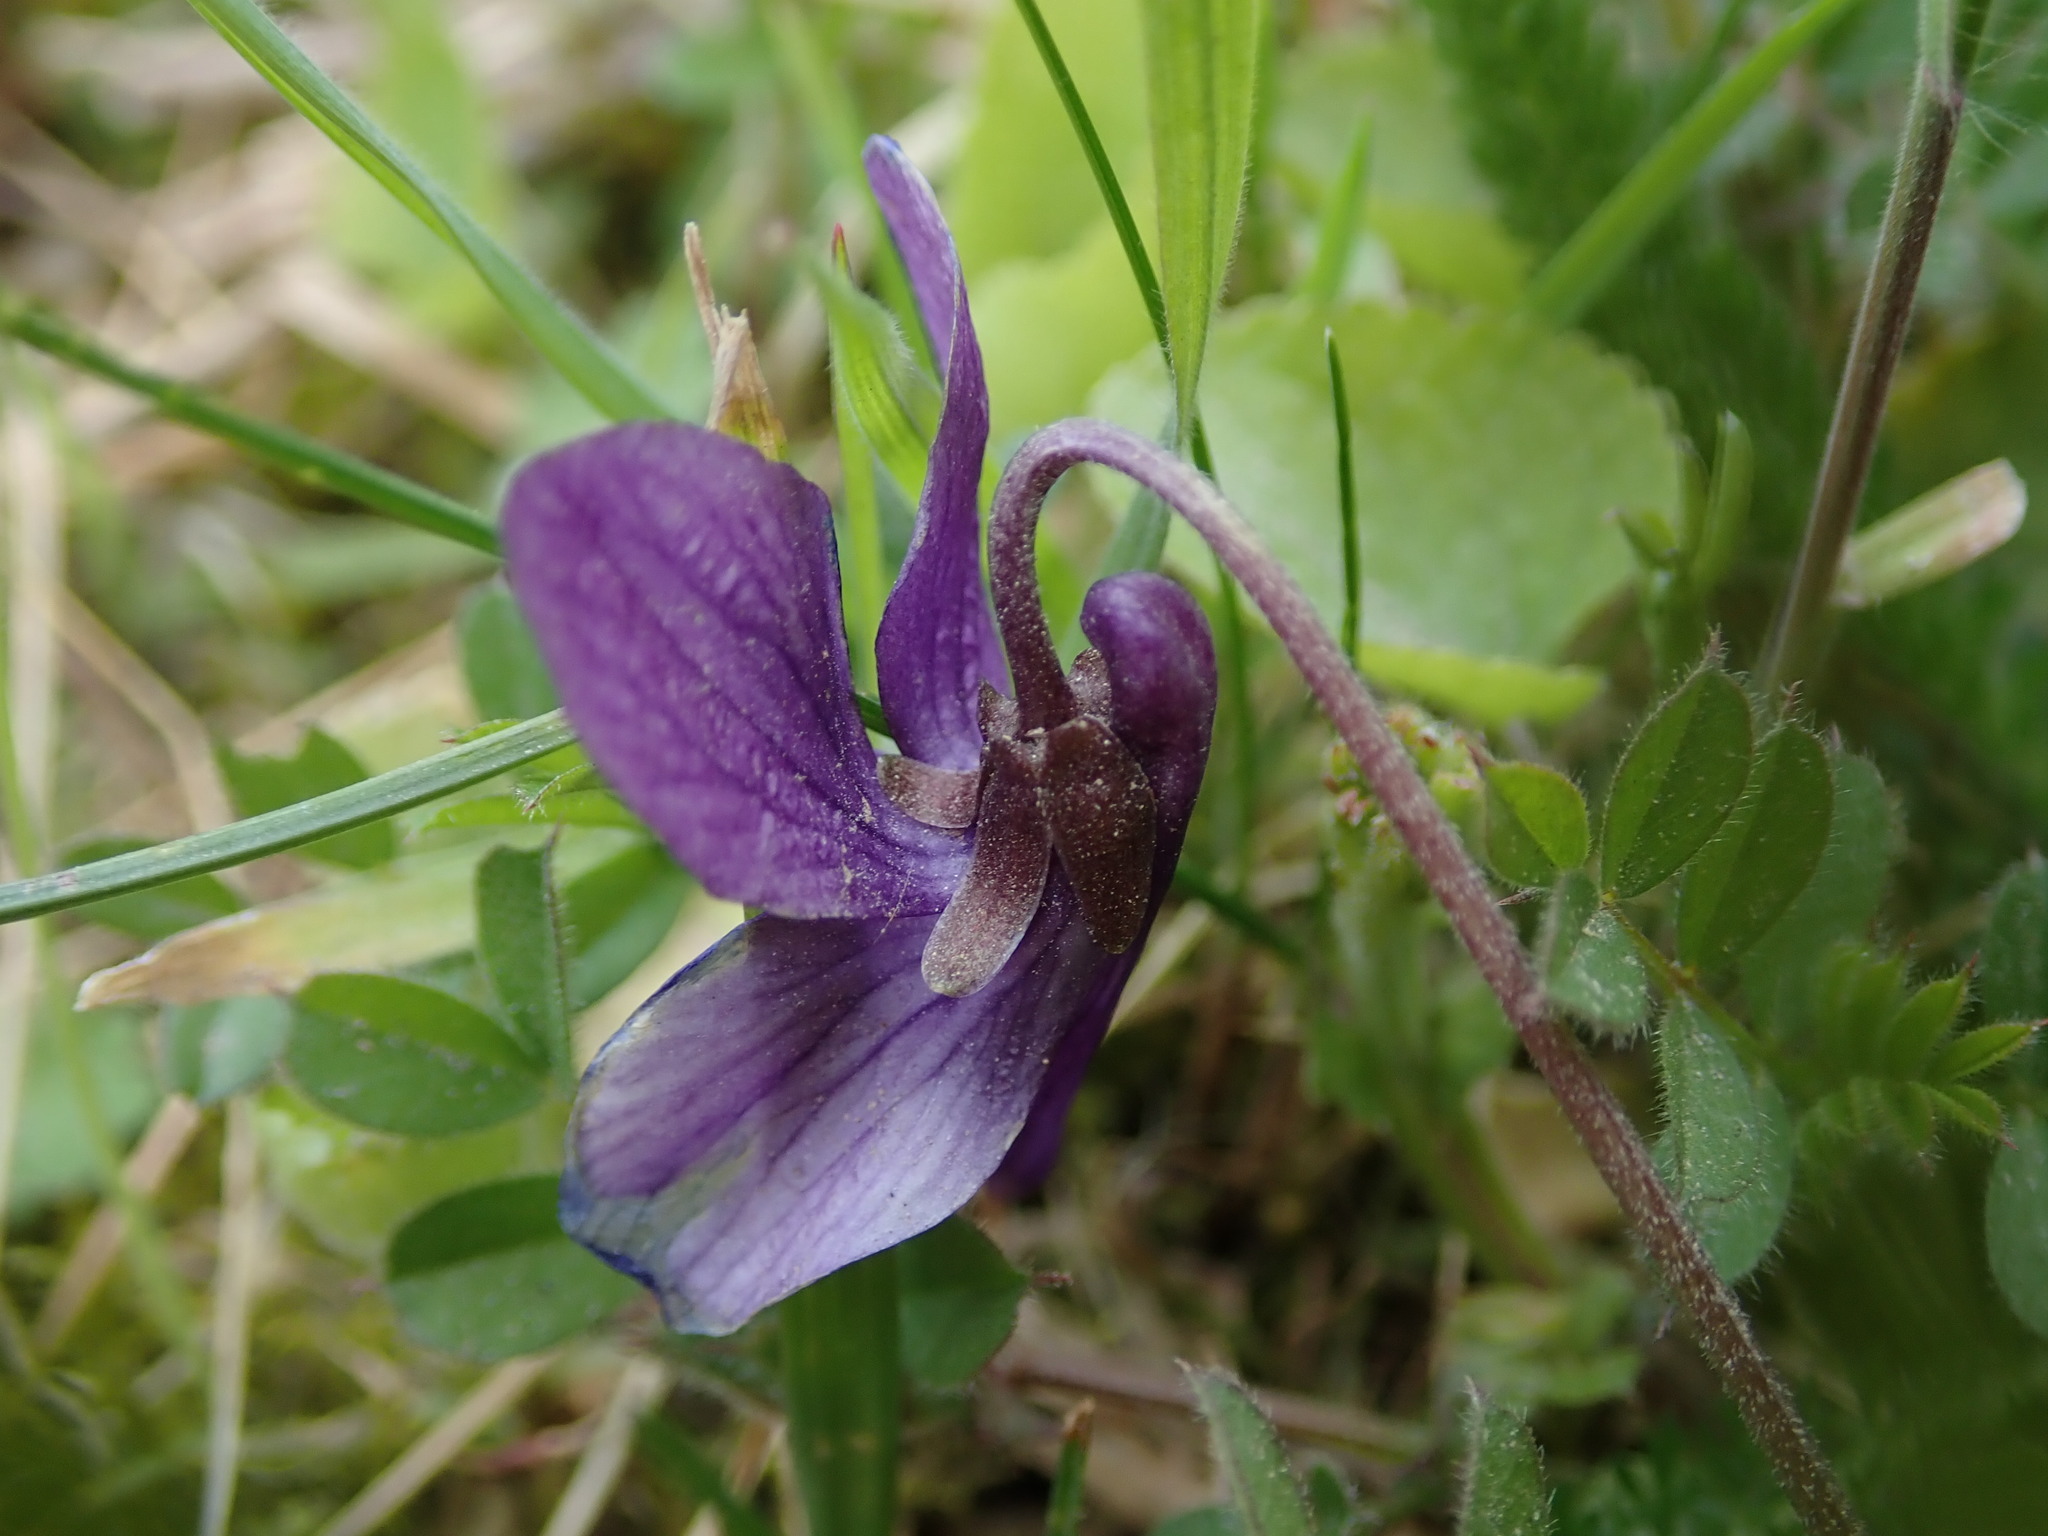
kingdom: Plantae
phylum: Tracheophyta
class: Magnoliopsida
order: Malpighiales
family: Violaceae
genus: Viola
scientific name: Viola odorata
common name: Sweet violet
